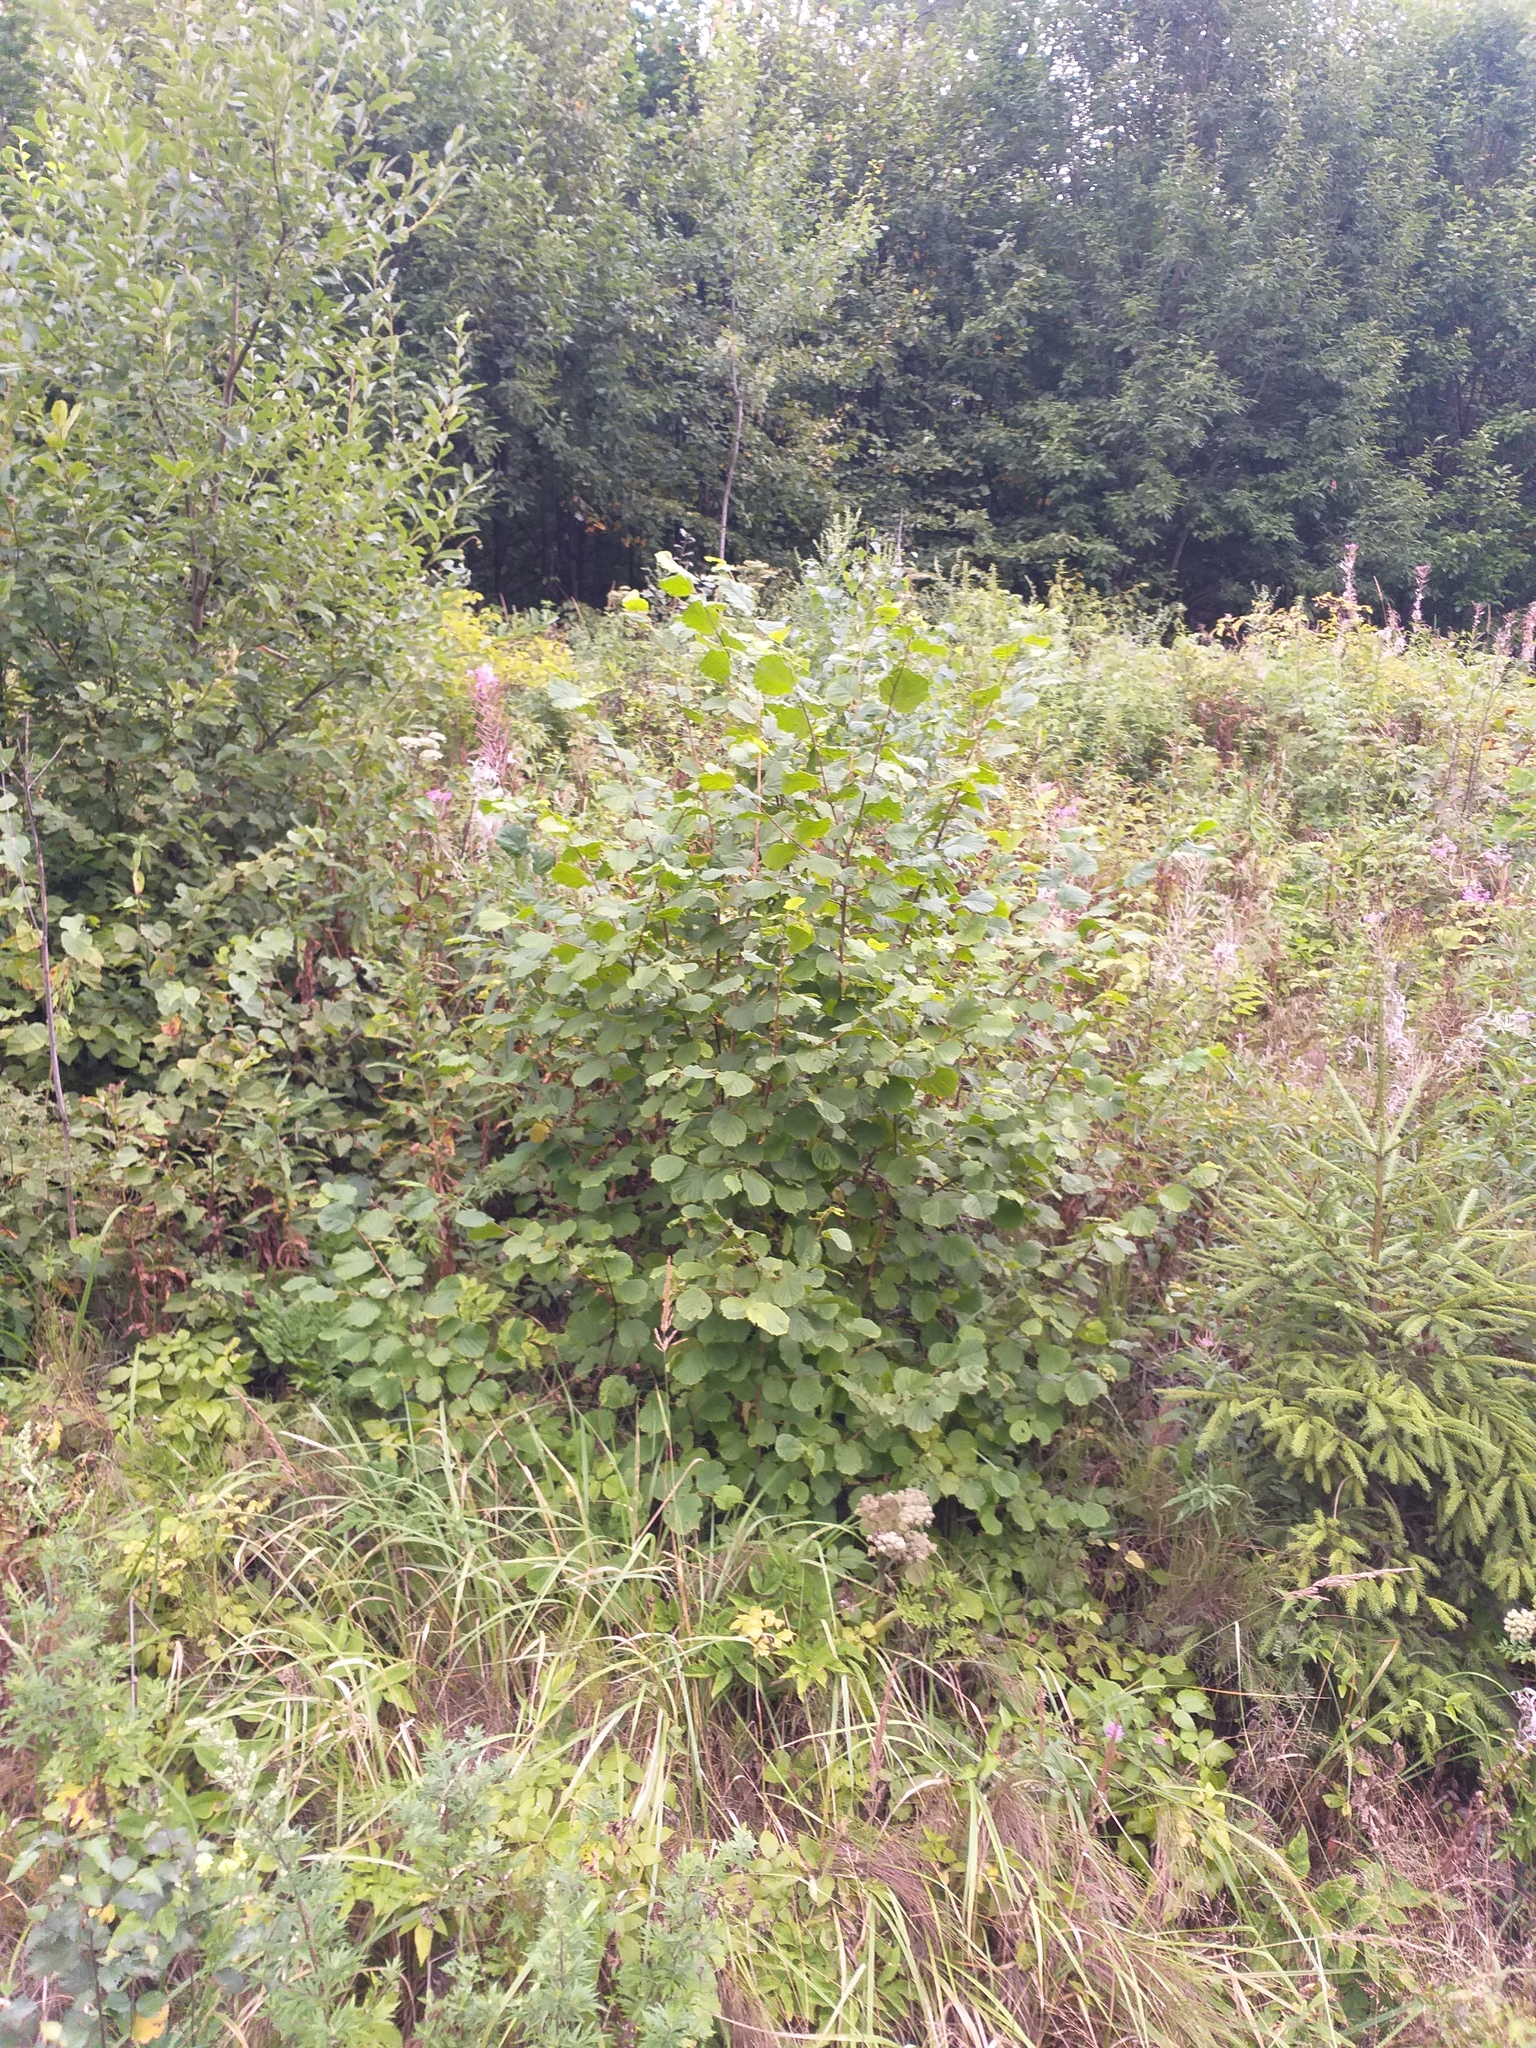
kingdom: Plantae
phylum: Tracheophyta
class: Magnoliopsida
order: Fagales
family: Betulaceae
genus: Corylus
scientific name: Corylus avellana
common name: European hazel
